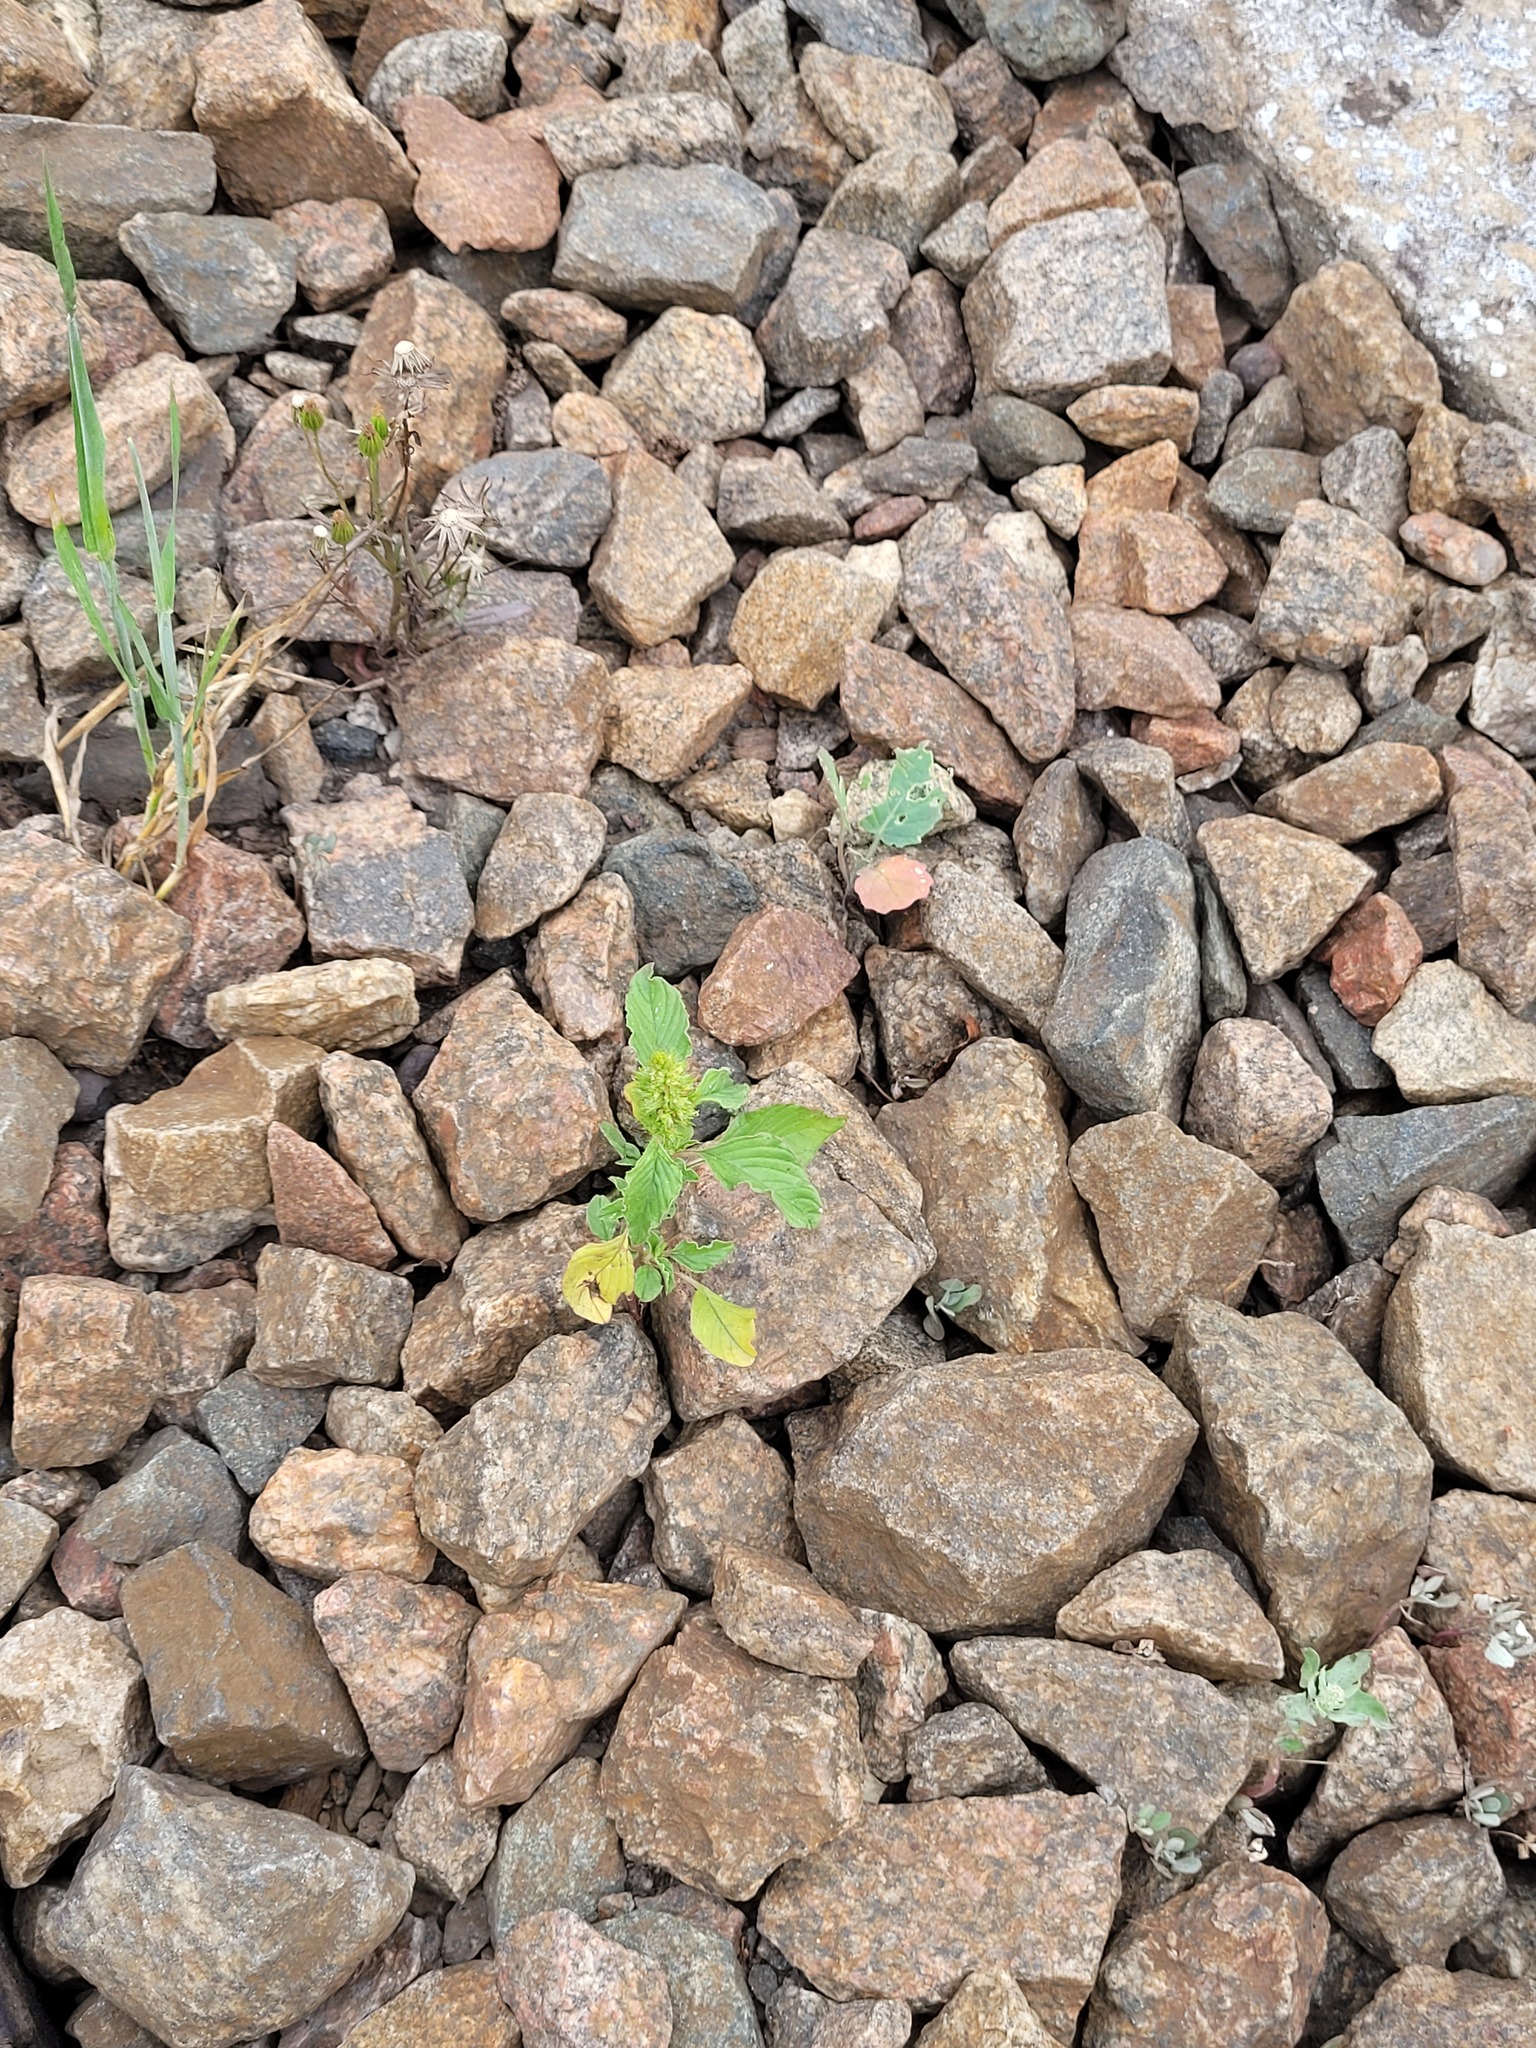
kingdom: Plantae
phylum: Tracheophyta
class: Magnoliopsida
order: Caryophyllales
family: Amaranthaceae
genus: Amaranthus
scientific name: Amaranthus retroflexus
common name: Redroot amaranth
